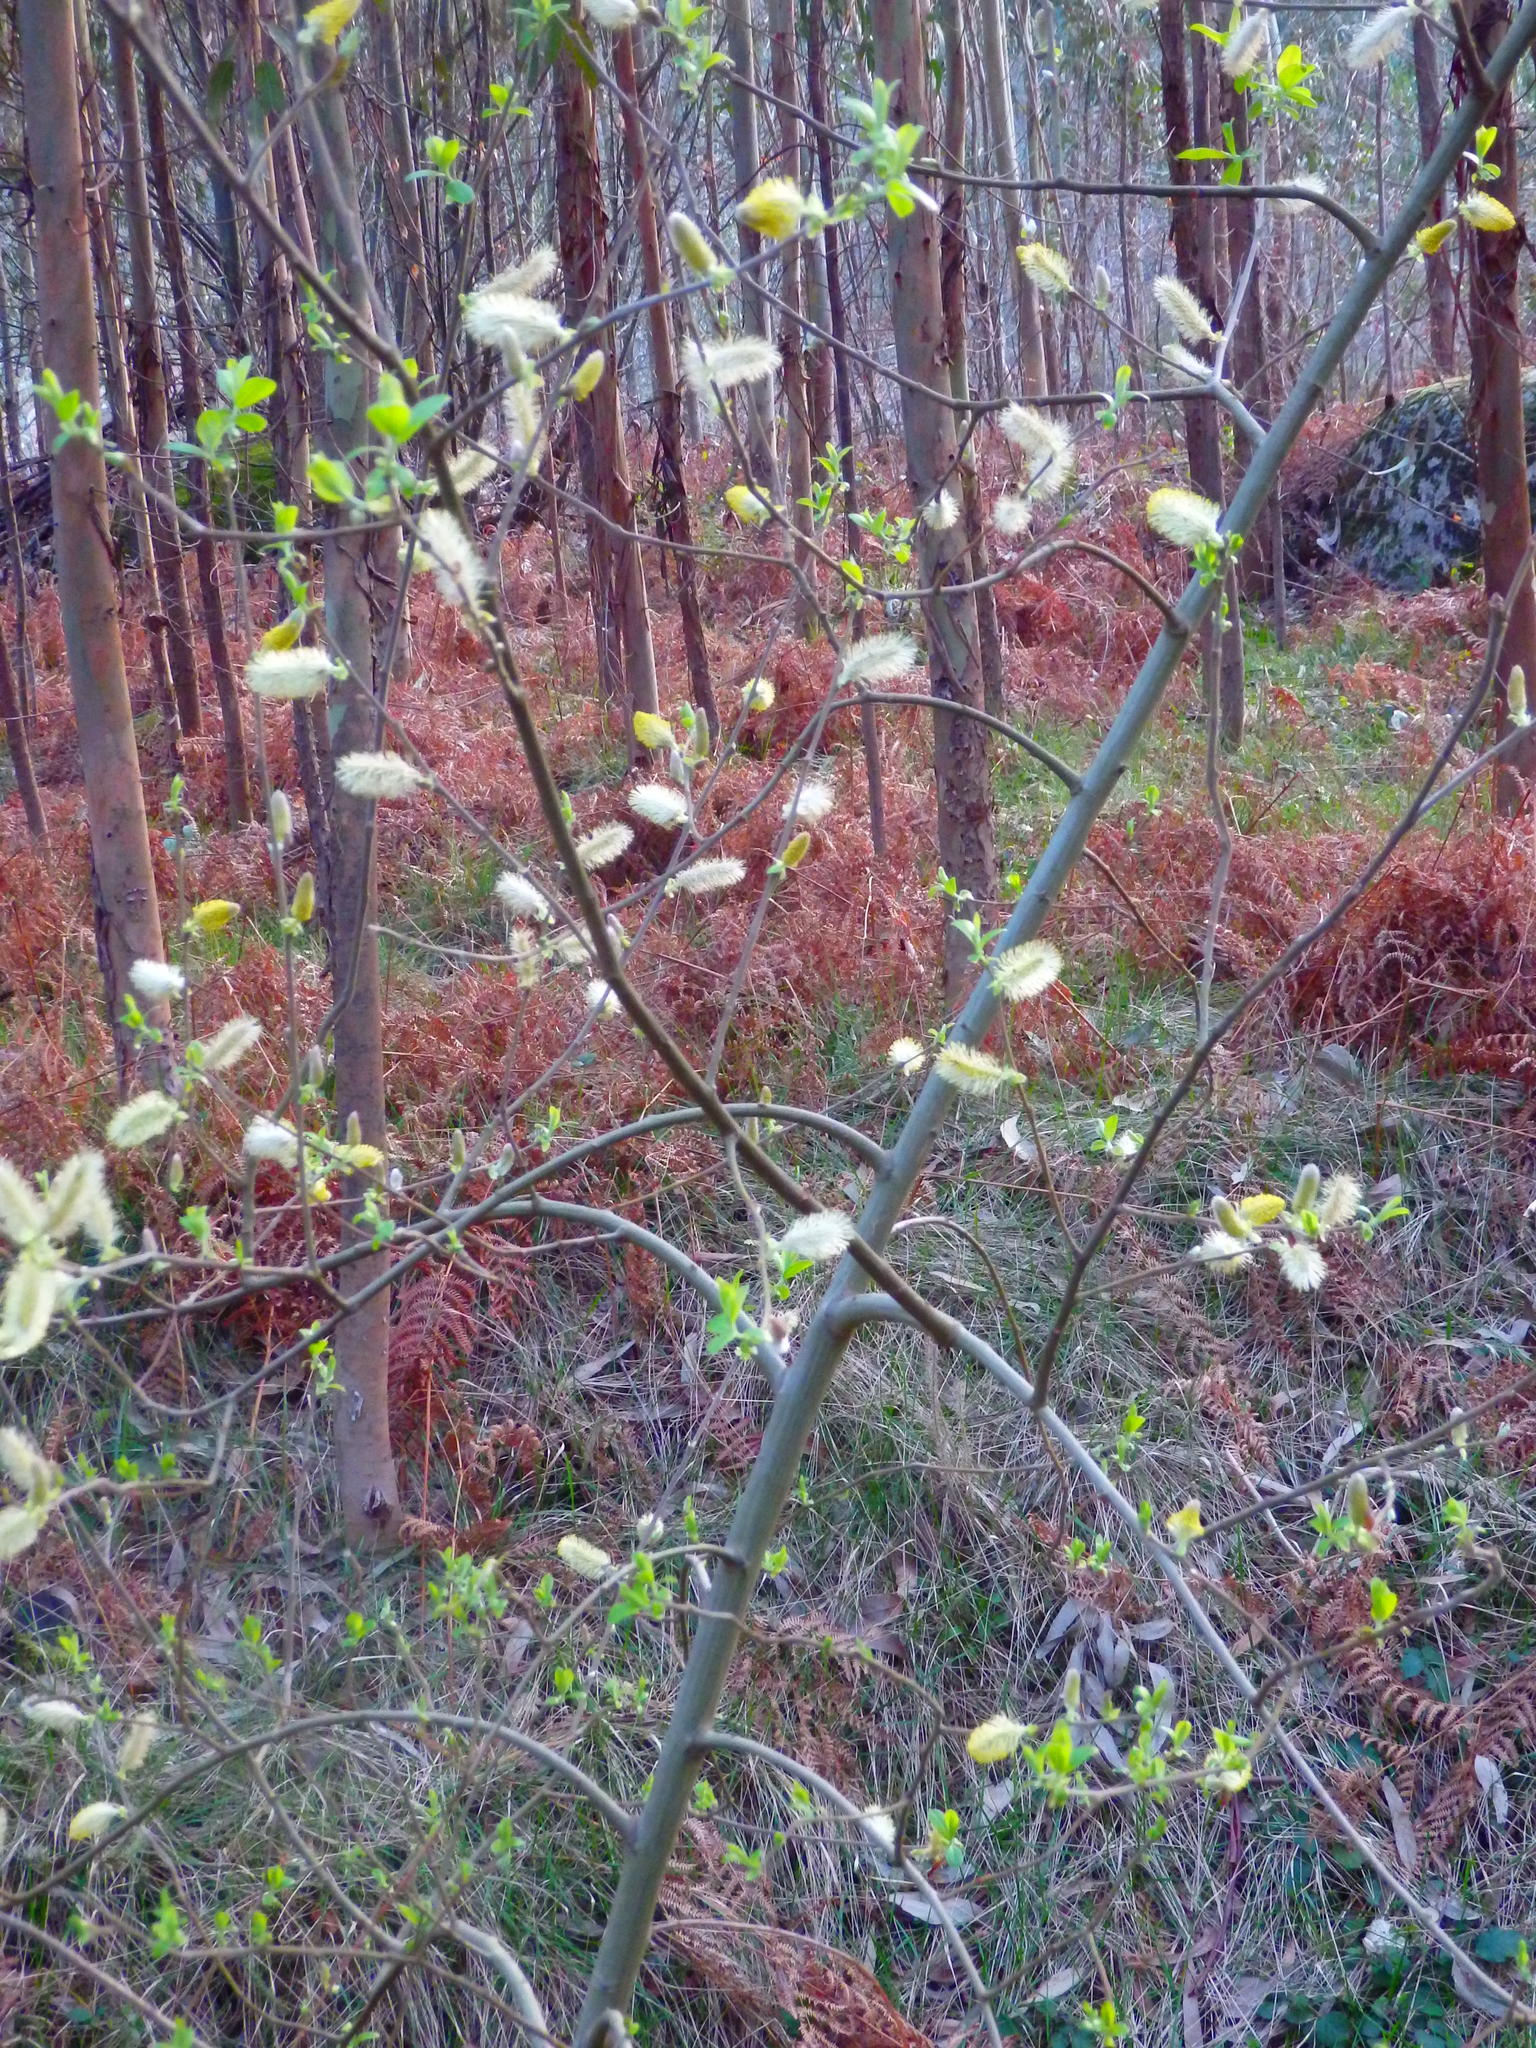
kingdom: Plantae
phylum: Tracheophyta
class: Magnoliopsida
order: Malpighiales
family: Salicaceae
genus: Salix
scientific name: Salix atrocinerea
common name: Rusty willow
